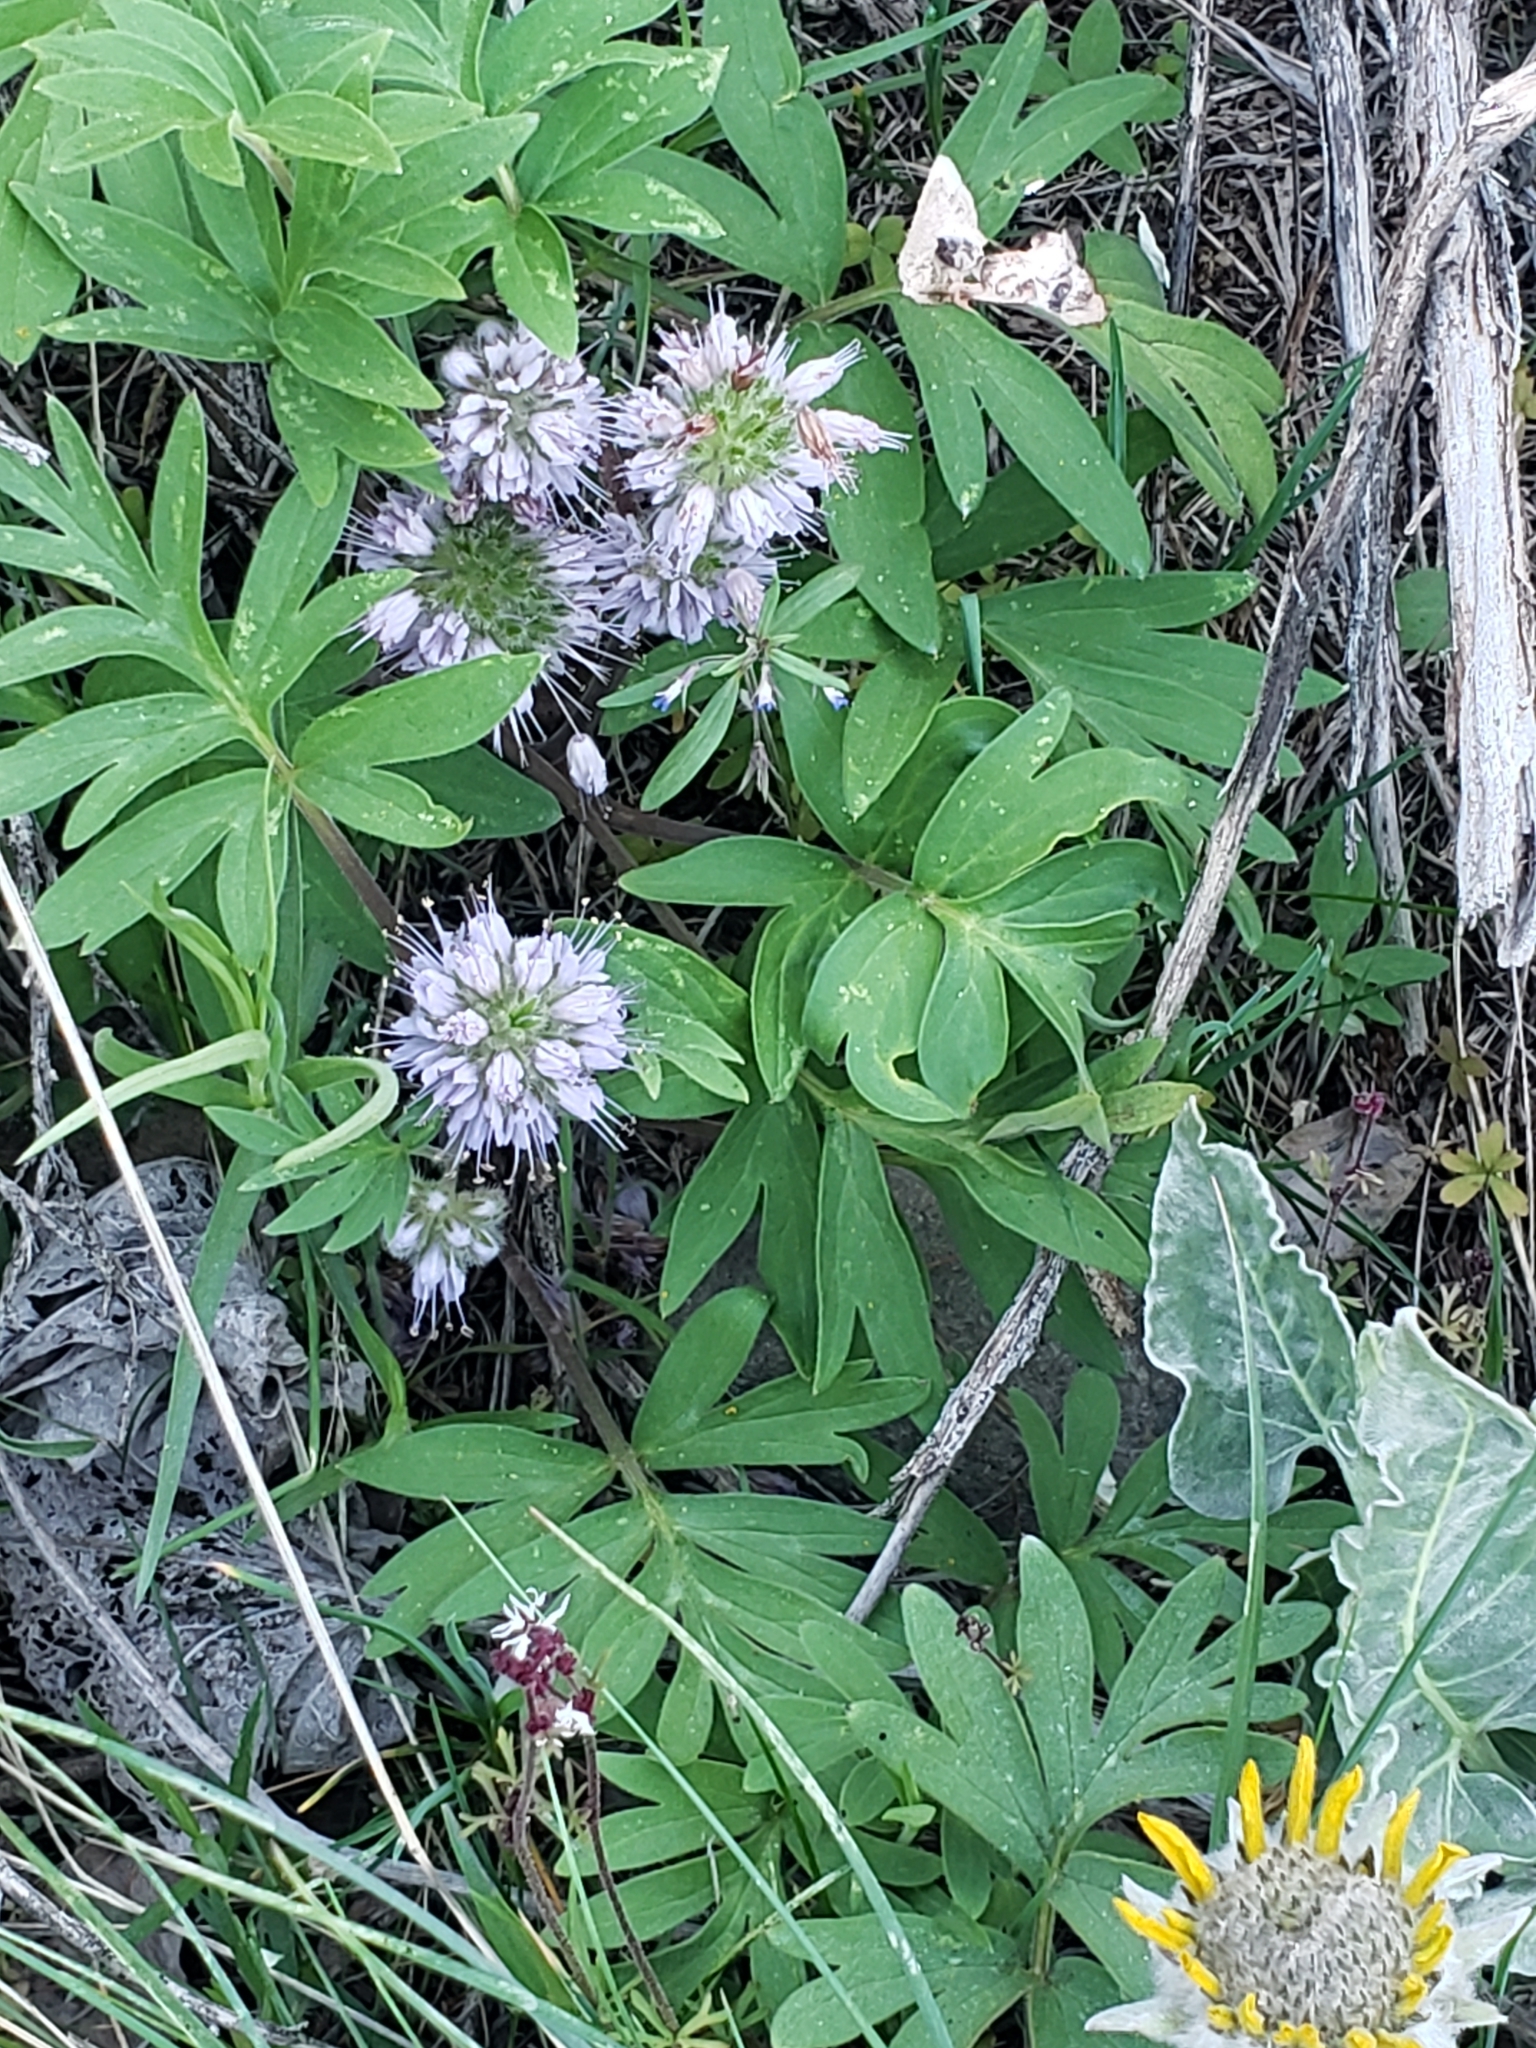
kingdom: Plantae
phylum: Tracheophyta
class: Magnoliopsida
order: Boraginales
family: Hydrophyllaceae
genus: Hydrophyllum
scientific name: Hydrophyllum capitatum
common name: Woollen-breeches
